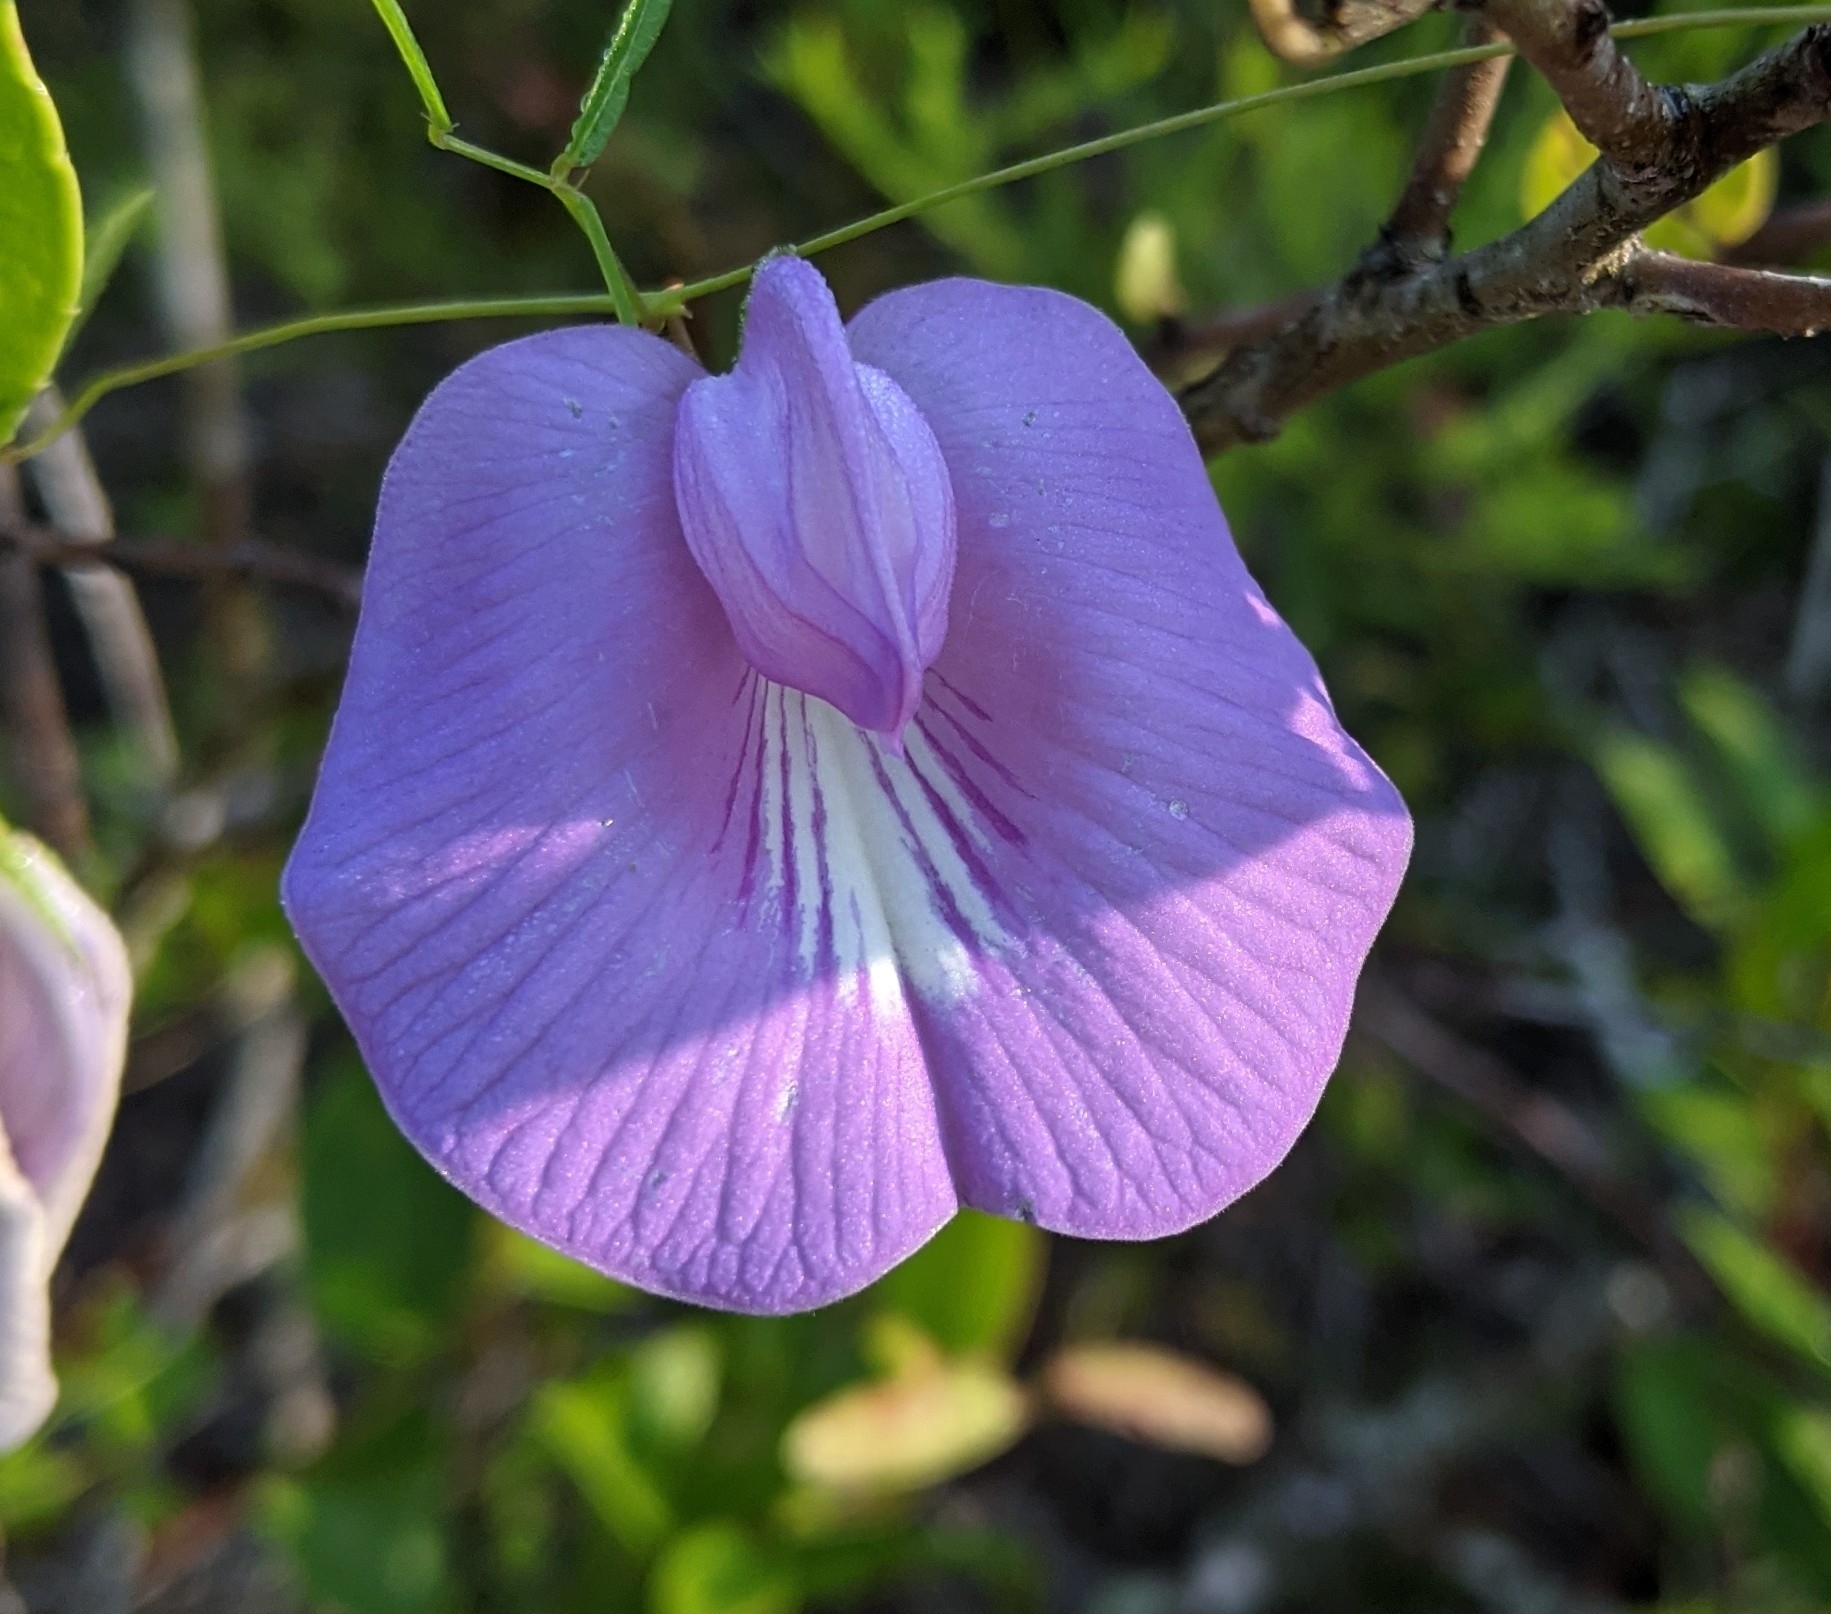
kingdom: Plantae
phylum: Tracheophyta
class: Magnoliopsida
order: Fabales
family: Fabaceae
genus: Centrosema
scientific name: Centrosema virginianum
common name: Butterfly-pea
